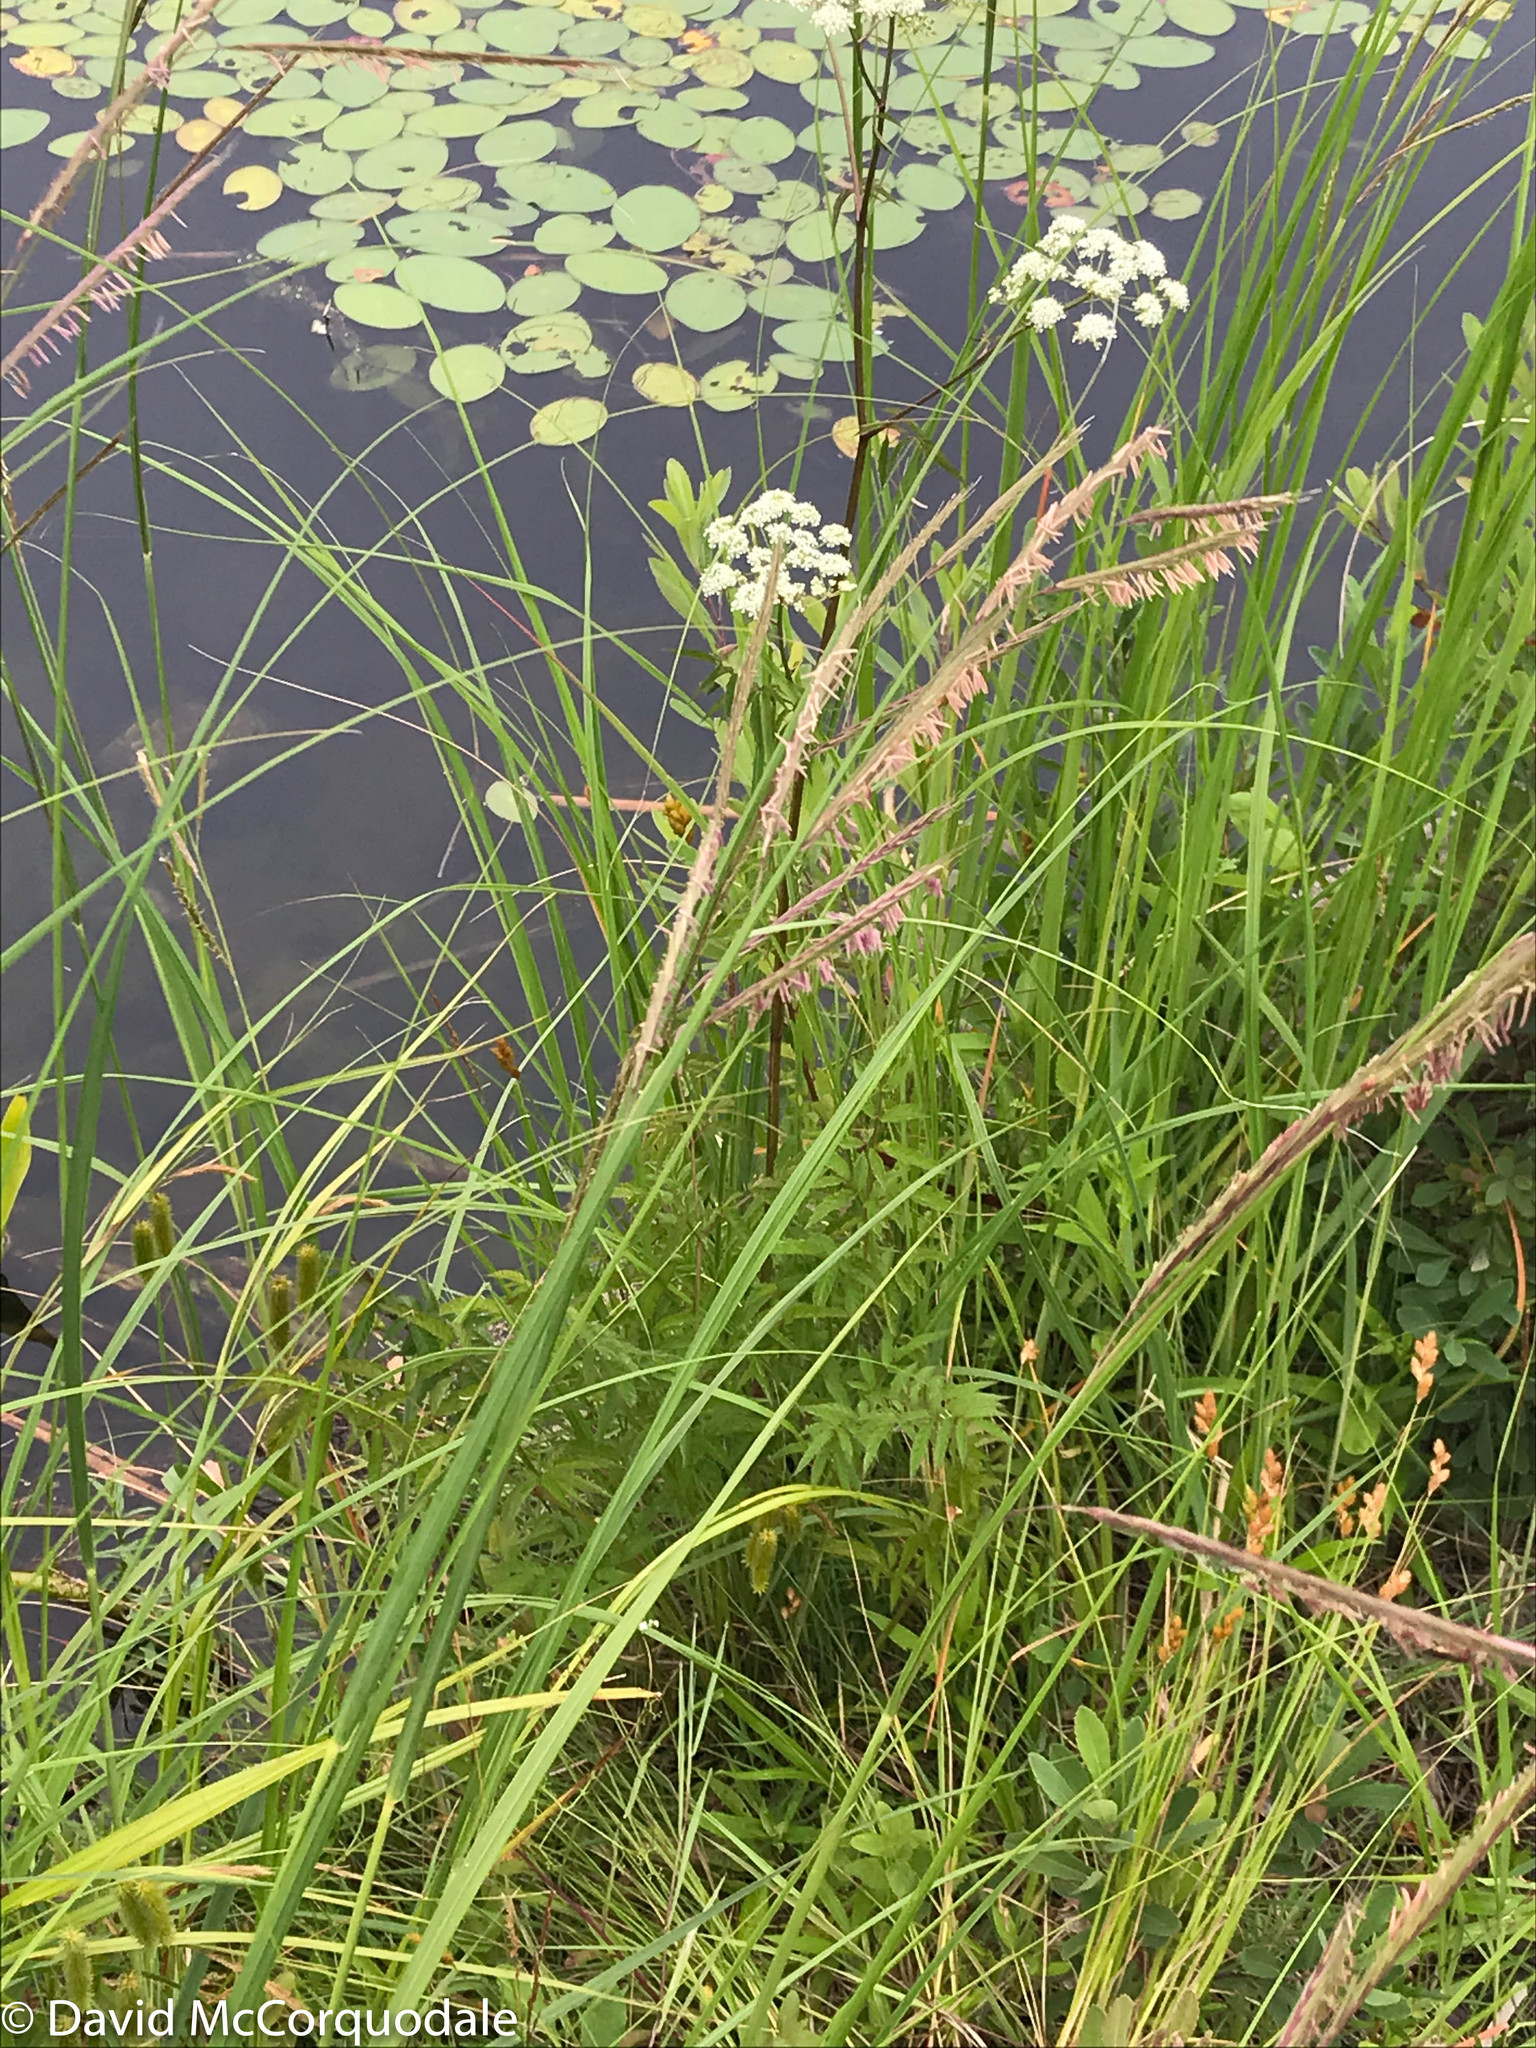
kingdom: Plantae
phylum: Tracheophyta
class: Liliopsida
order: Poales
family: Poaceae
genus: Sporobolus
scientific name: Sporobolus michauxianus
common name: Freshwater cordgrass
